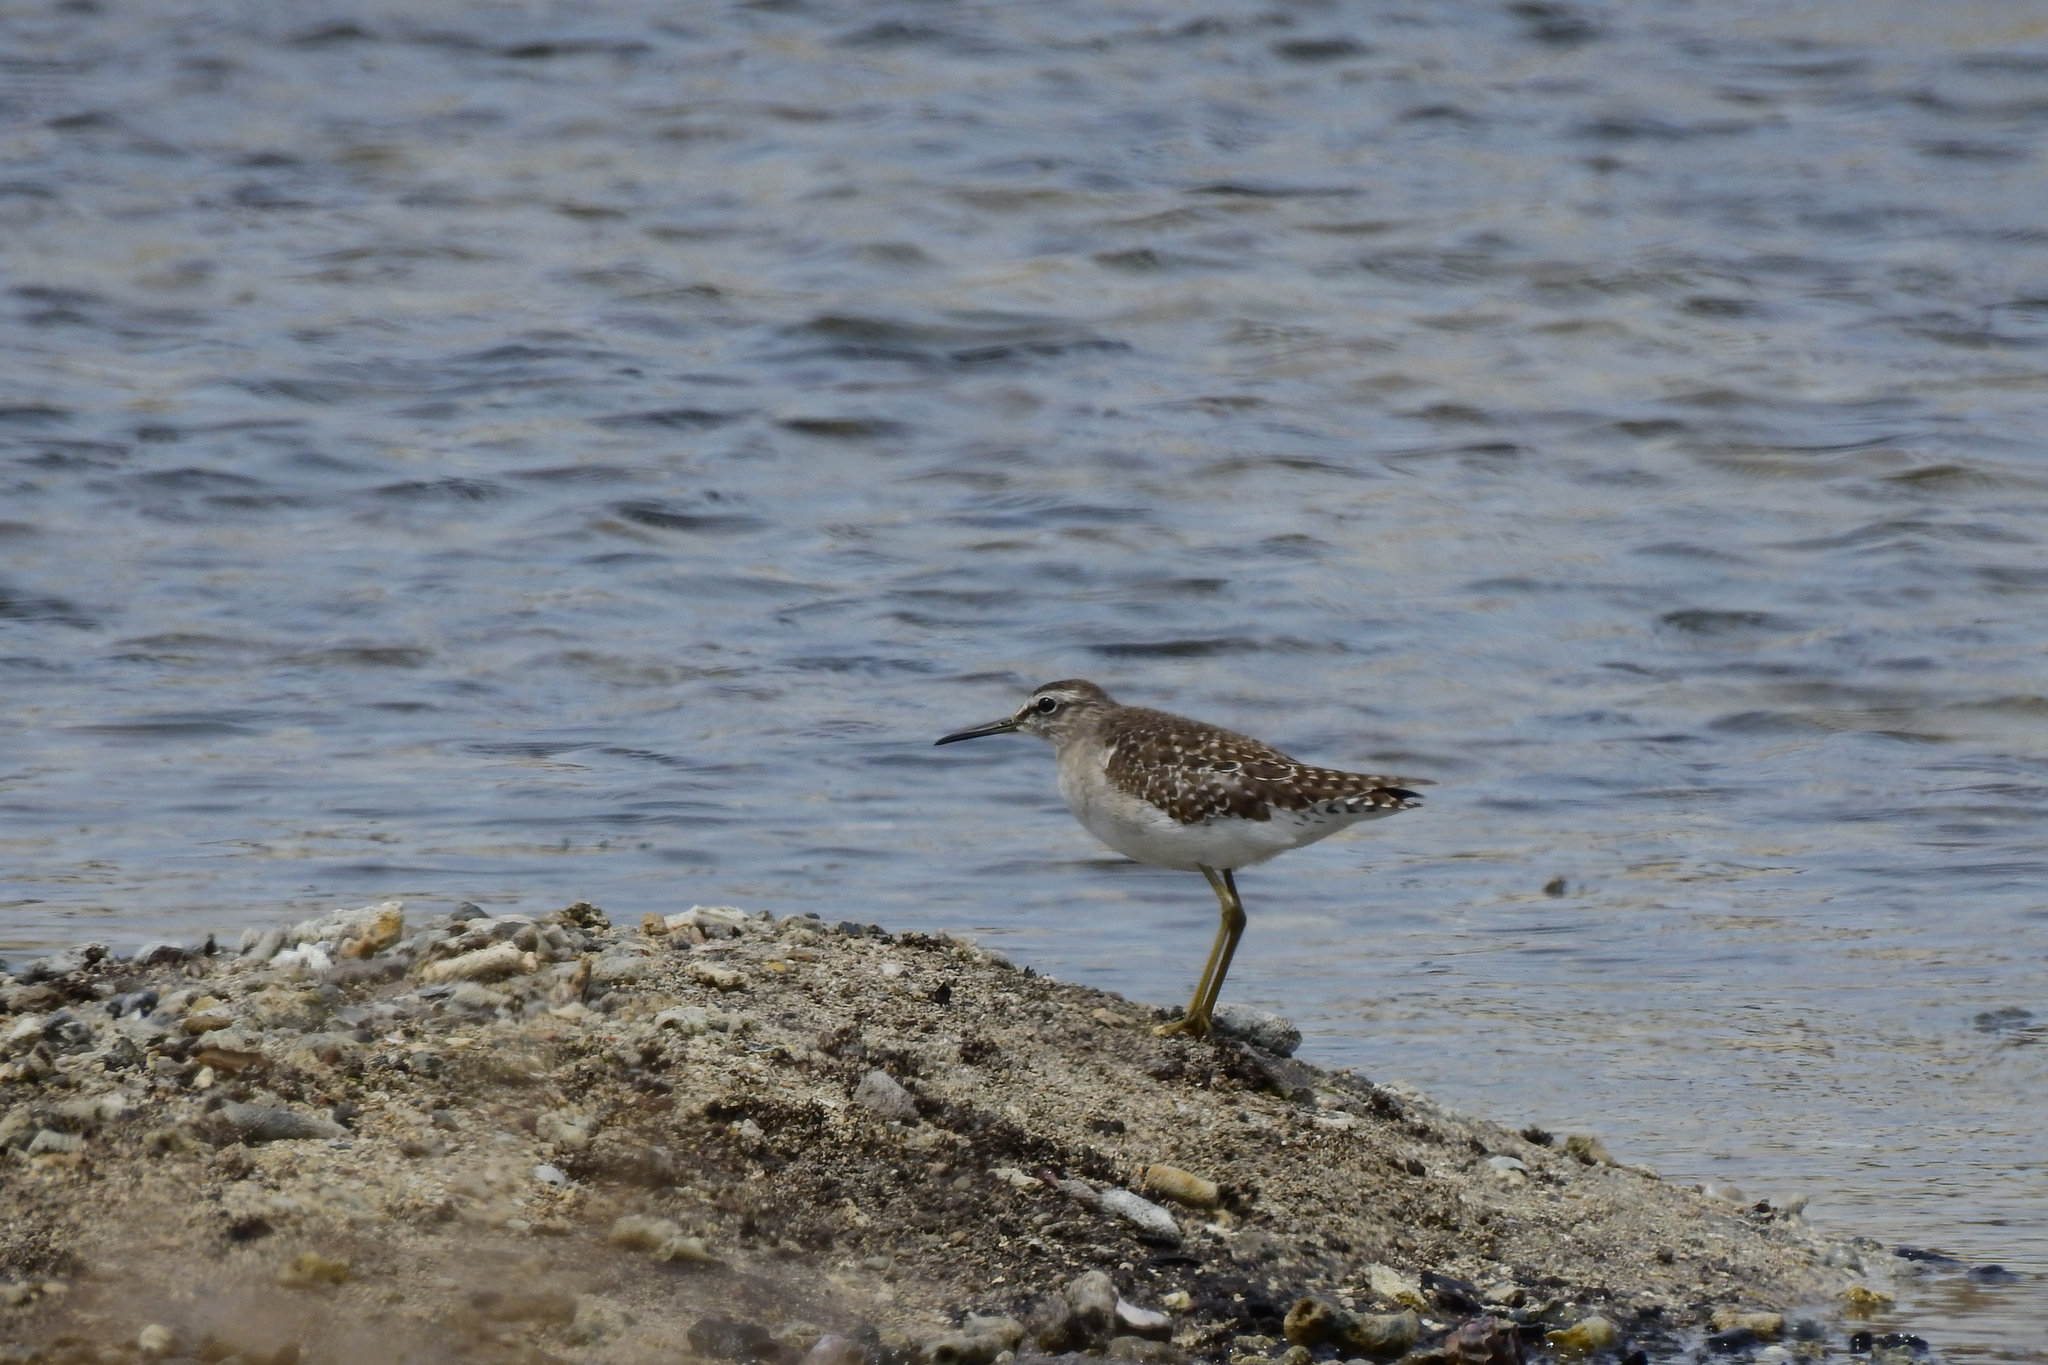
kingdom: Animalia
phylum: Chordata
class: Aves
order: Charadriiformes
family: Scolopacidae
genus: Tringa
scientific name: Tringa glareola
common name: Wood sandpiper
